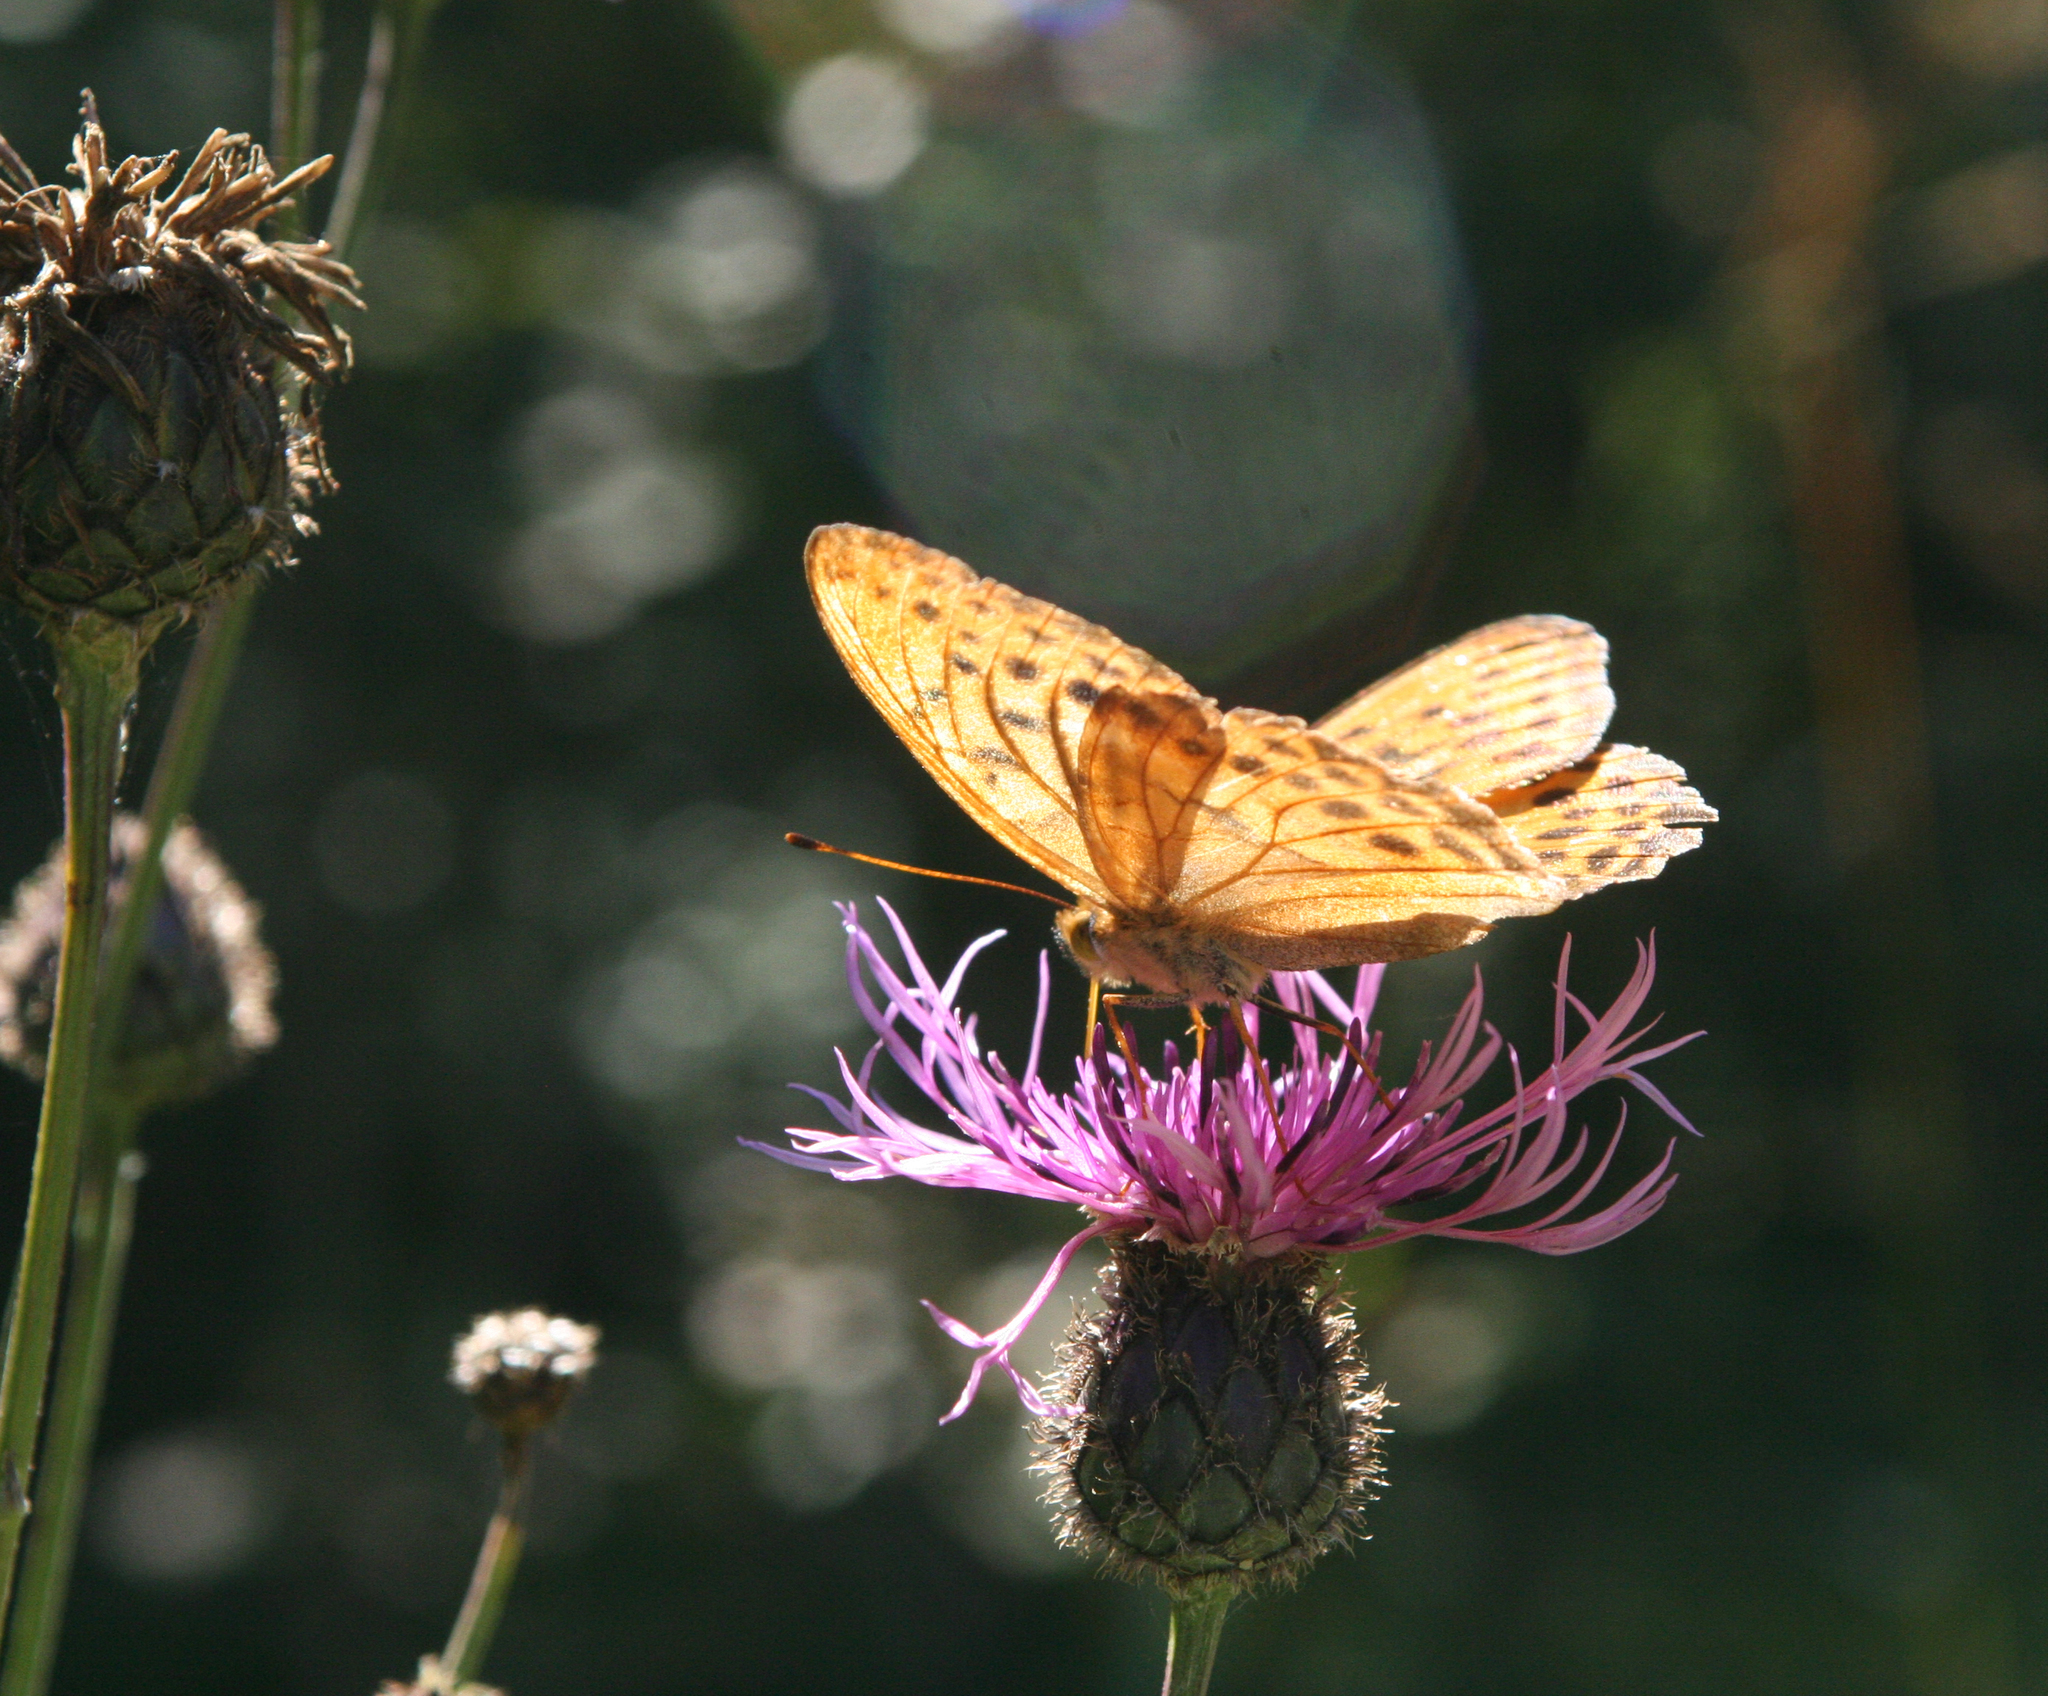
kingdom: Plantae
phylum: Tracheophyta
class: Magnoliopsida
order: Asterales
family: Asteraceae
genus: Centaurea
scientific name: Centaurea scabiosa
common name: Greater knapweed
